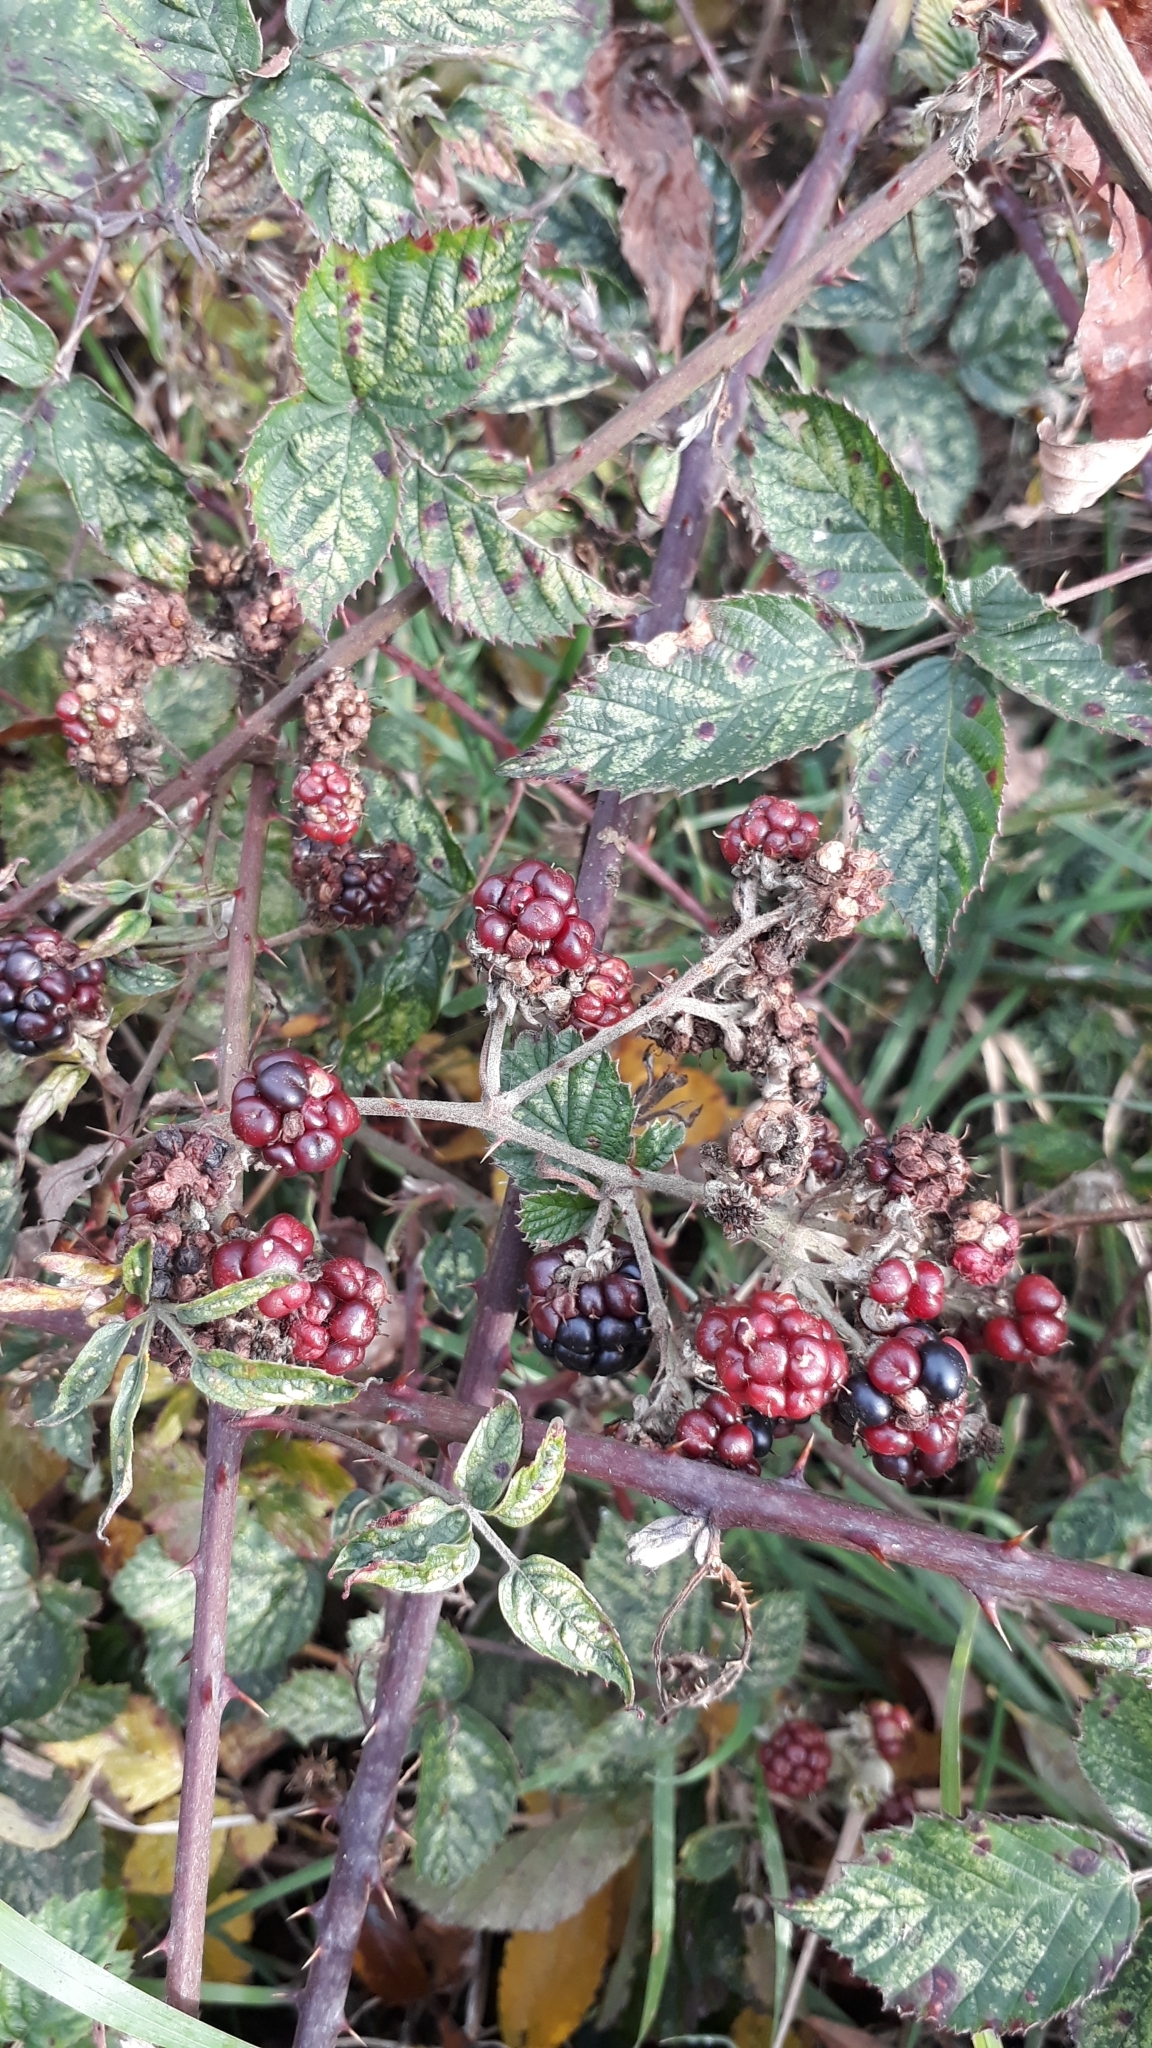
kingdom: Plantae
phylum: Tracheophyta
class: Magnoliopsida
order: Rosales
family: Rosaceae
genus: Rubus
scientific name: Rubus
